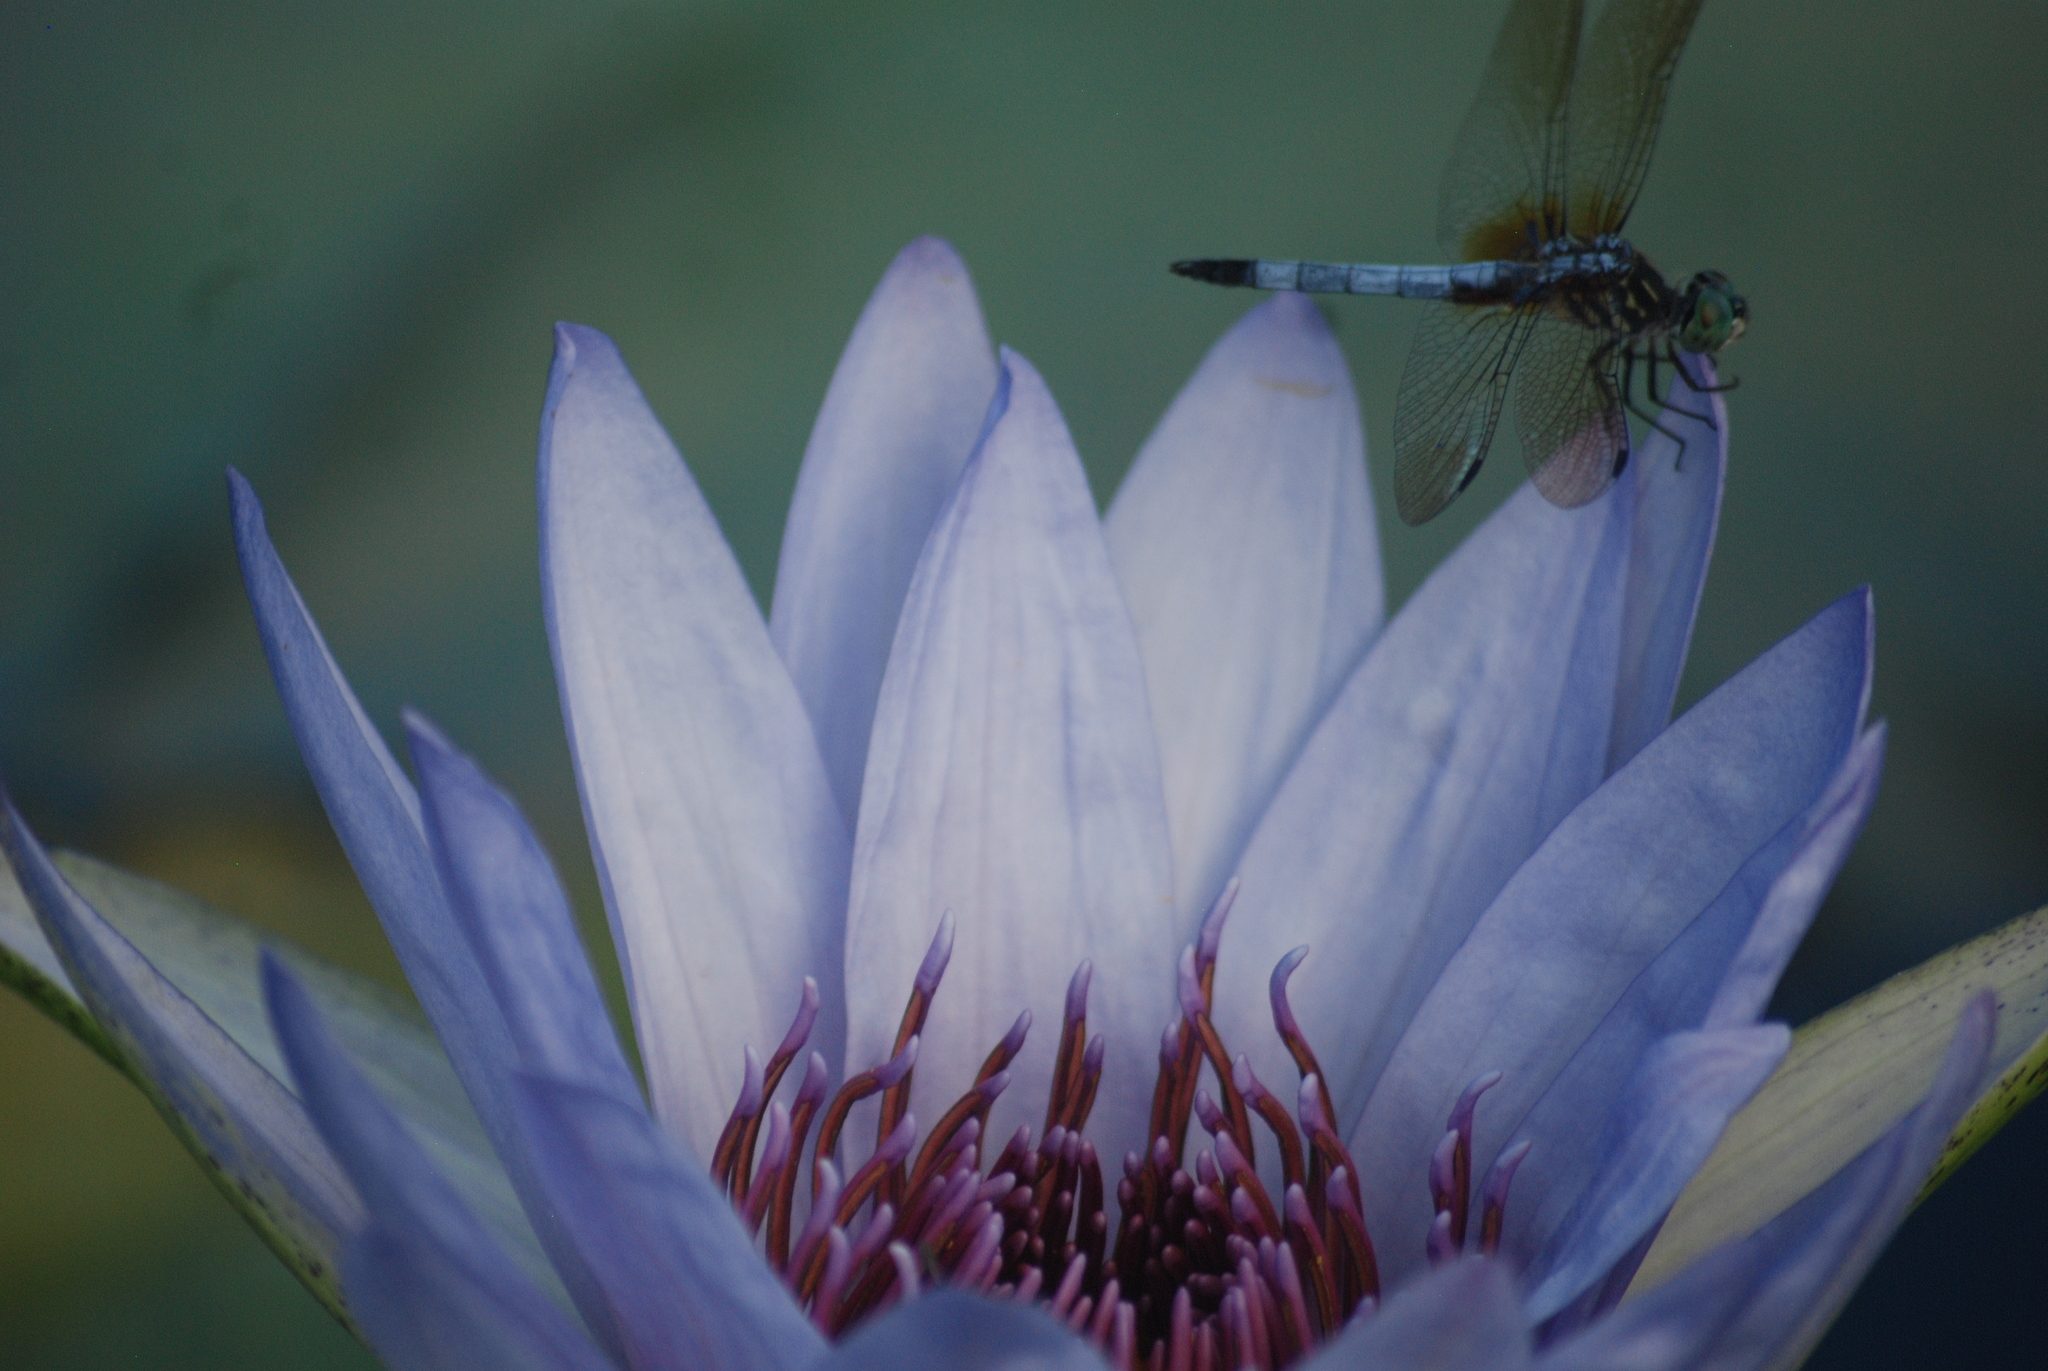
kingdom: Animalia
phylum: Arthropoda
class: Insecta
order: Odonata
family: Libellulidae
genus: Pachydiplax
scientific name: Pachydiplax longipennis
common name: Blue dasher
